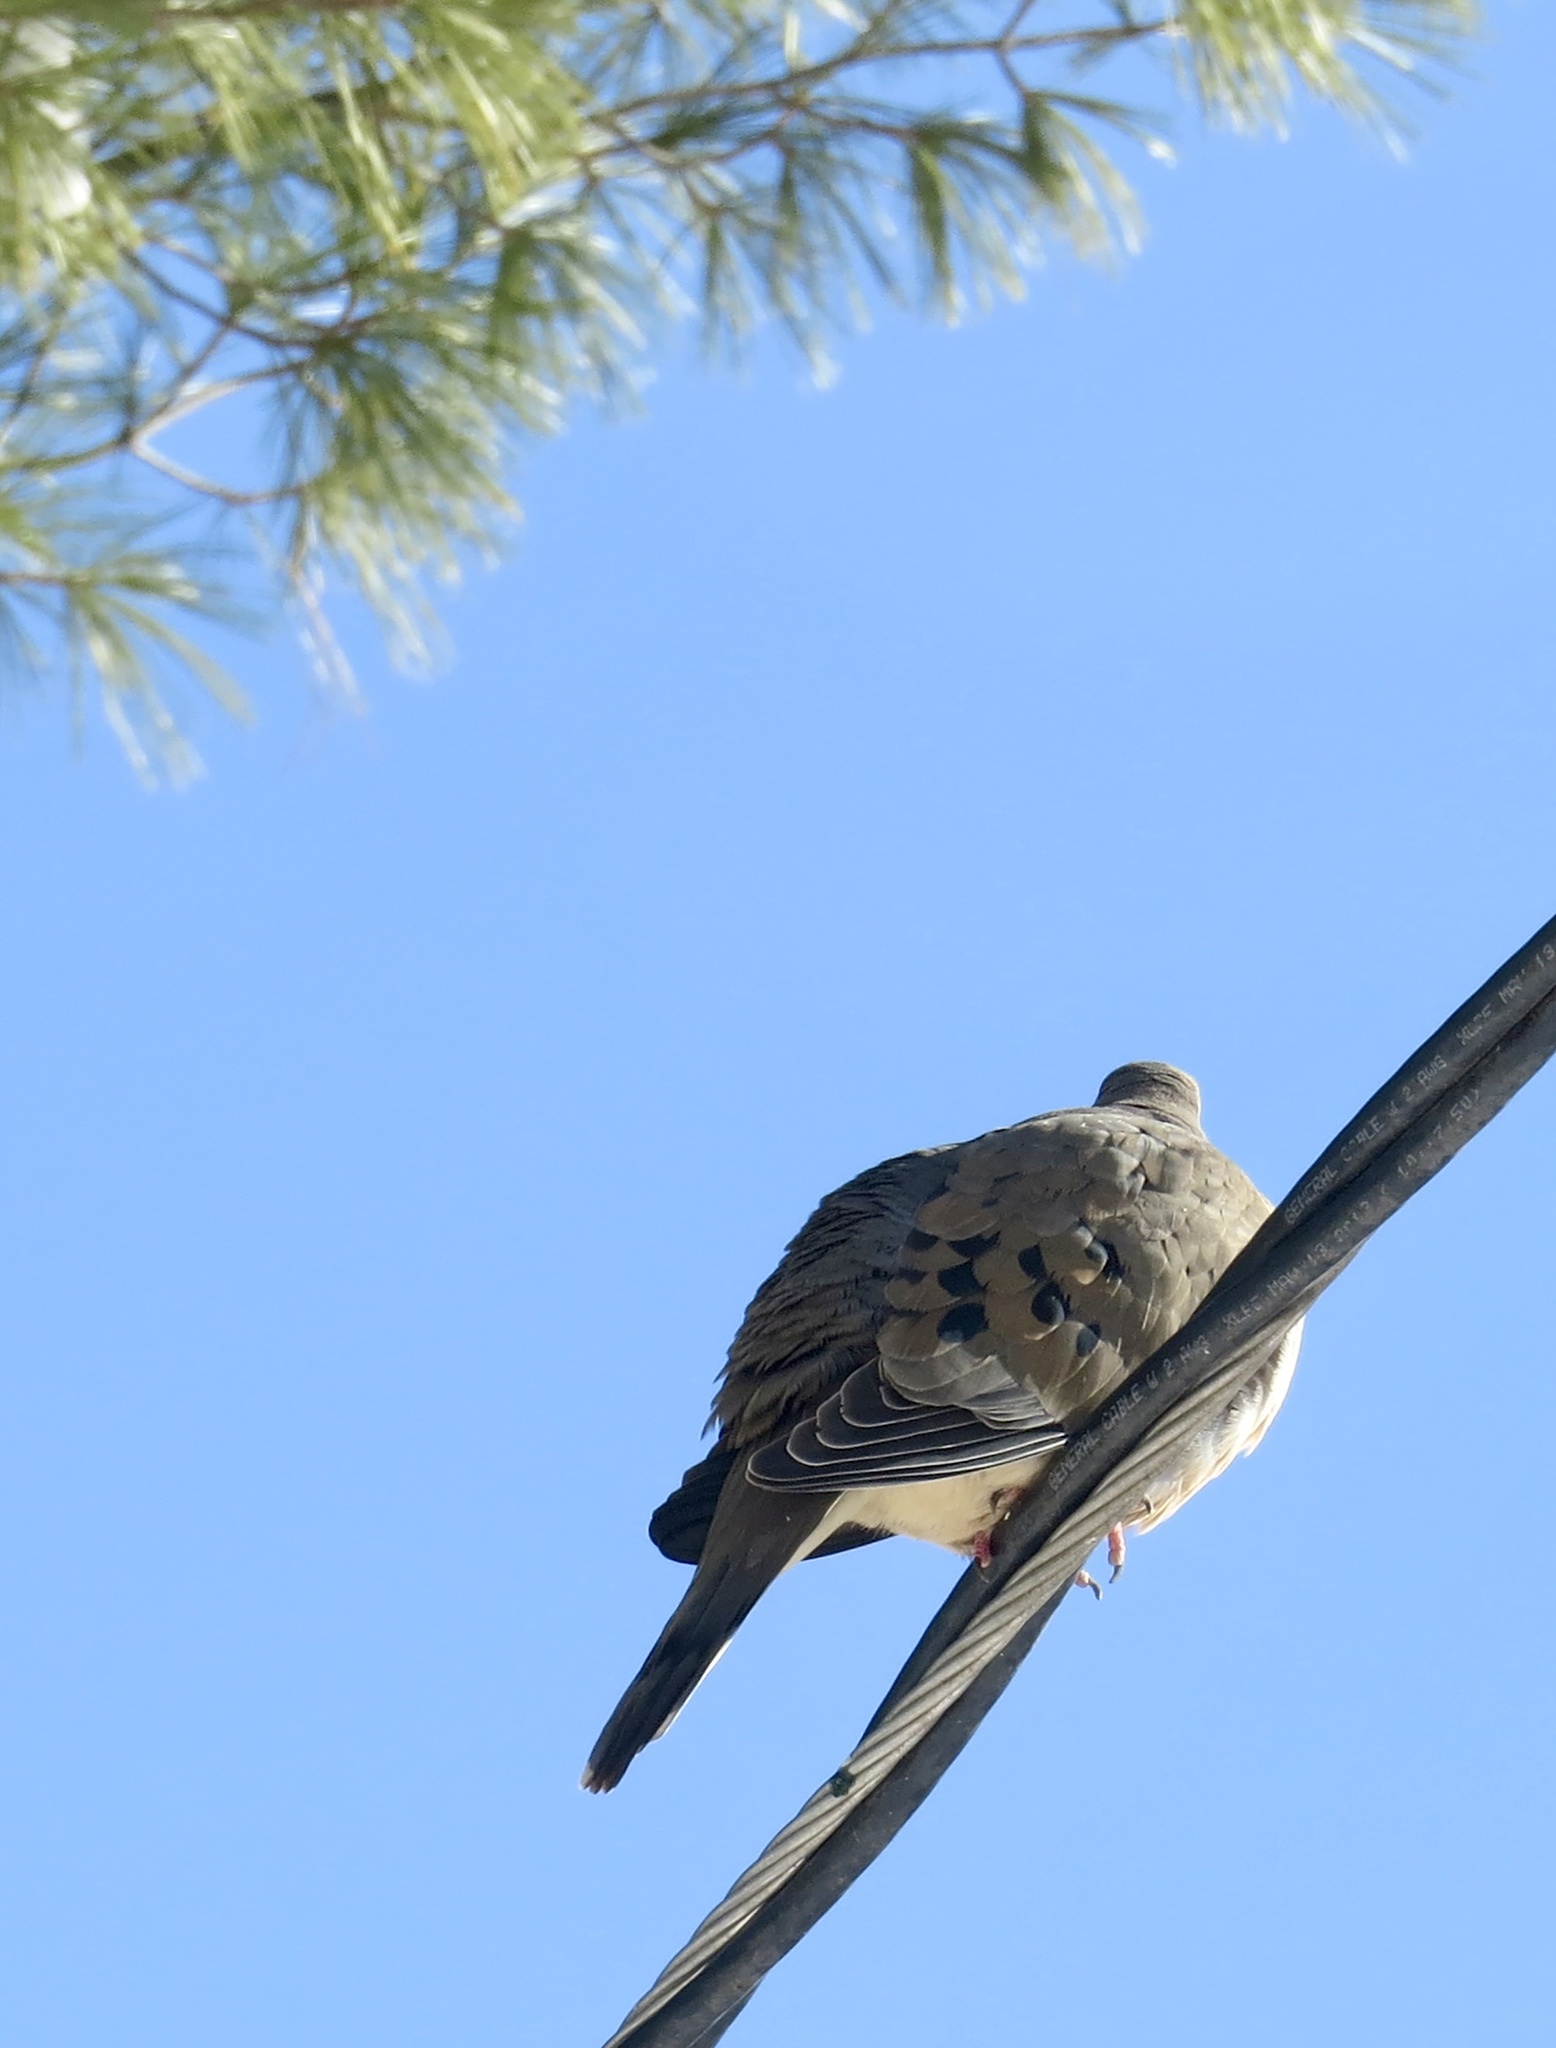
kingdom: Animalia
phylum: Chordata
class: Aves
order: Columbiformes
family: Columbidae
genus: Zenaida
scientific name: Zenaida macroura
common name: Mourning dove
